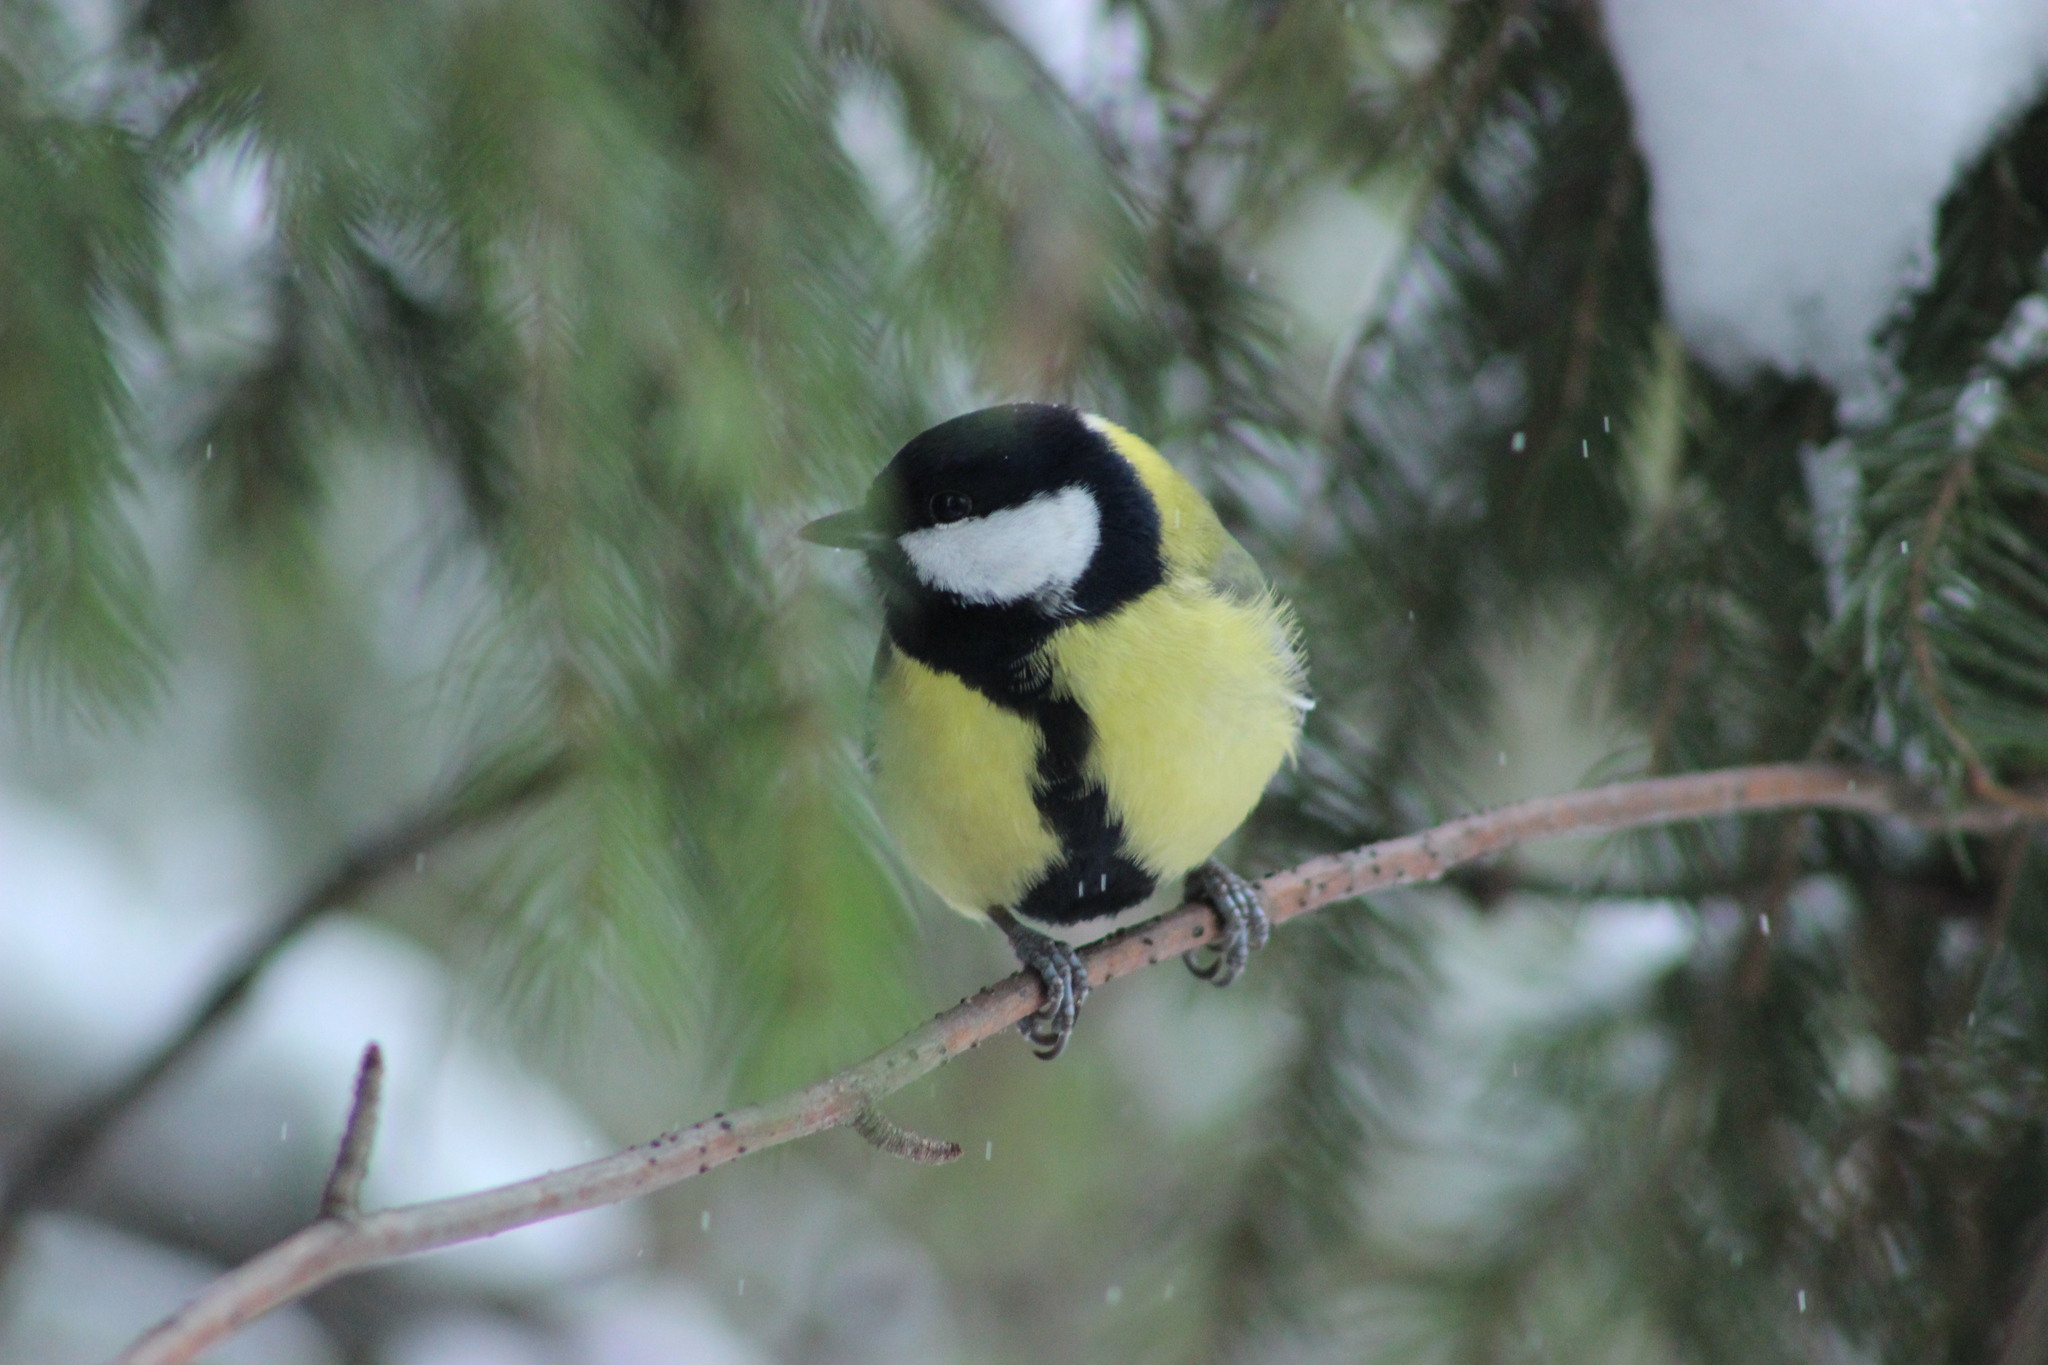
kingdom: Animalia
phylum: Chordata
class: Aves
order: Passeriformes
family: Paridae
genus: Parus
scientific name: Parus major
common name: Great tit
